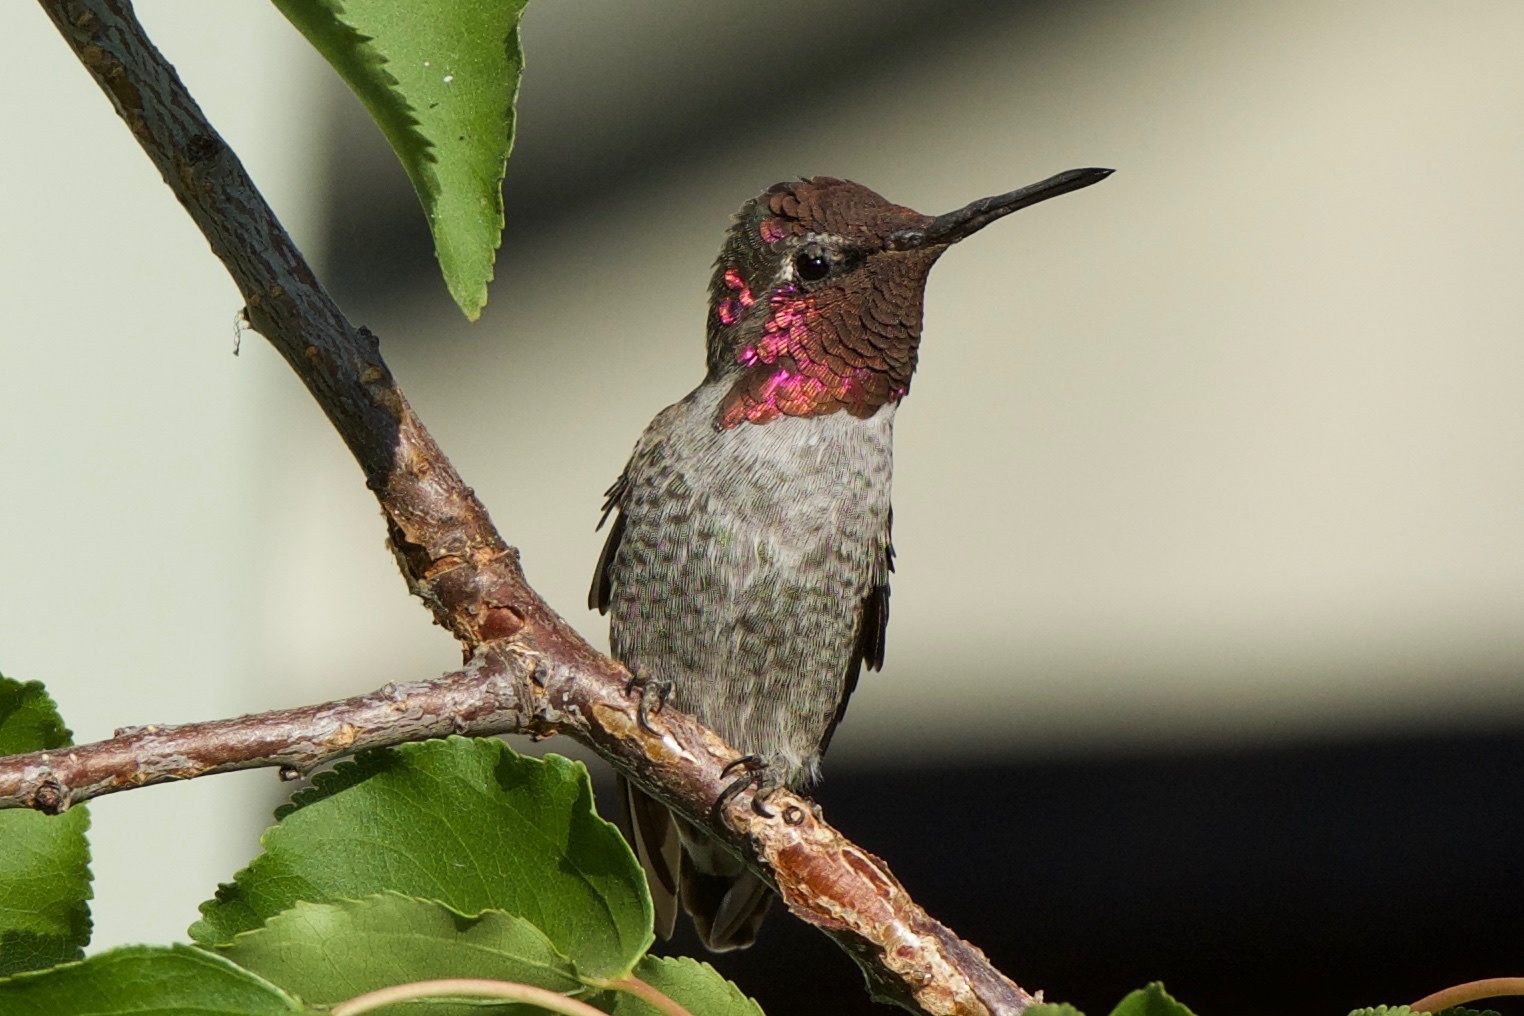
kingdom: Animalia
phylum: Chordata
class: Aves
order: Apodiformes
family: Trochilidae
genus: Calypte
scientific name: Calypte anna
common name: Anna's hummingbird
